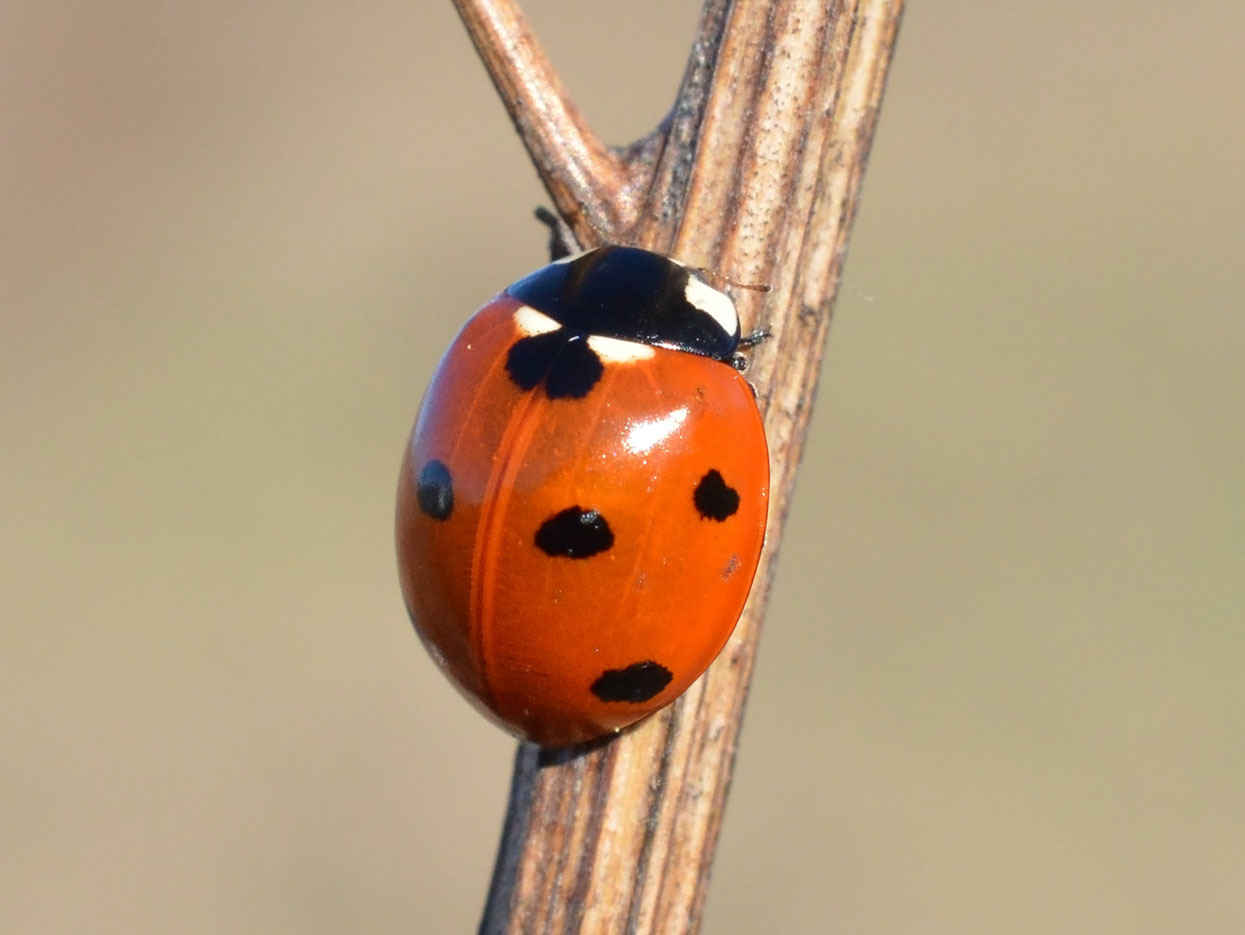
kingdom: Animalia
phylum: Arthropoda
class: Insecta
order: Coleoptera
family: Coccinellidae
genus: Coccinella
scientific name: Coccinella septempunctata
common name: Sevenspotted lady beetle
